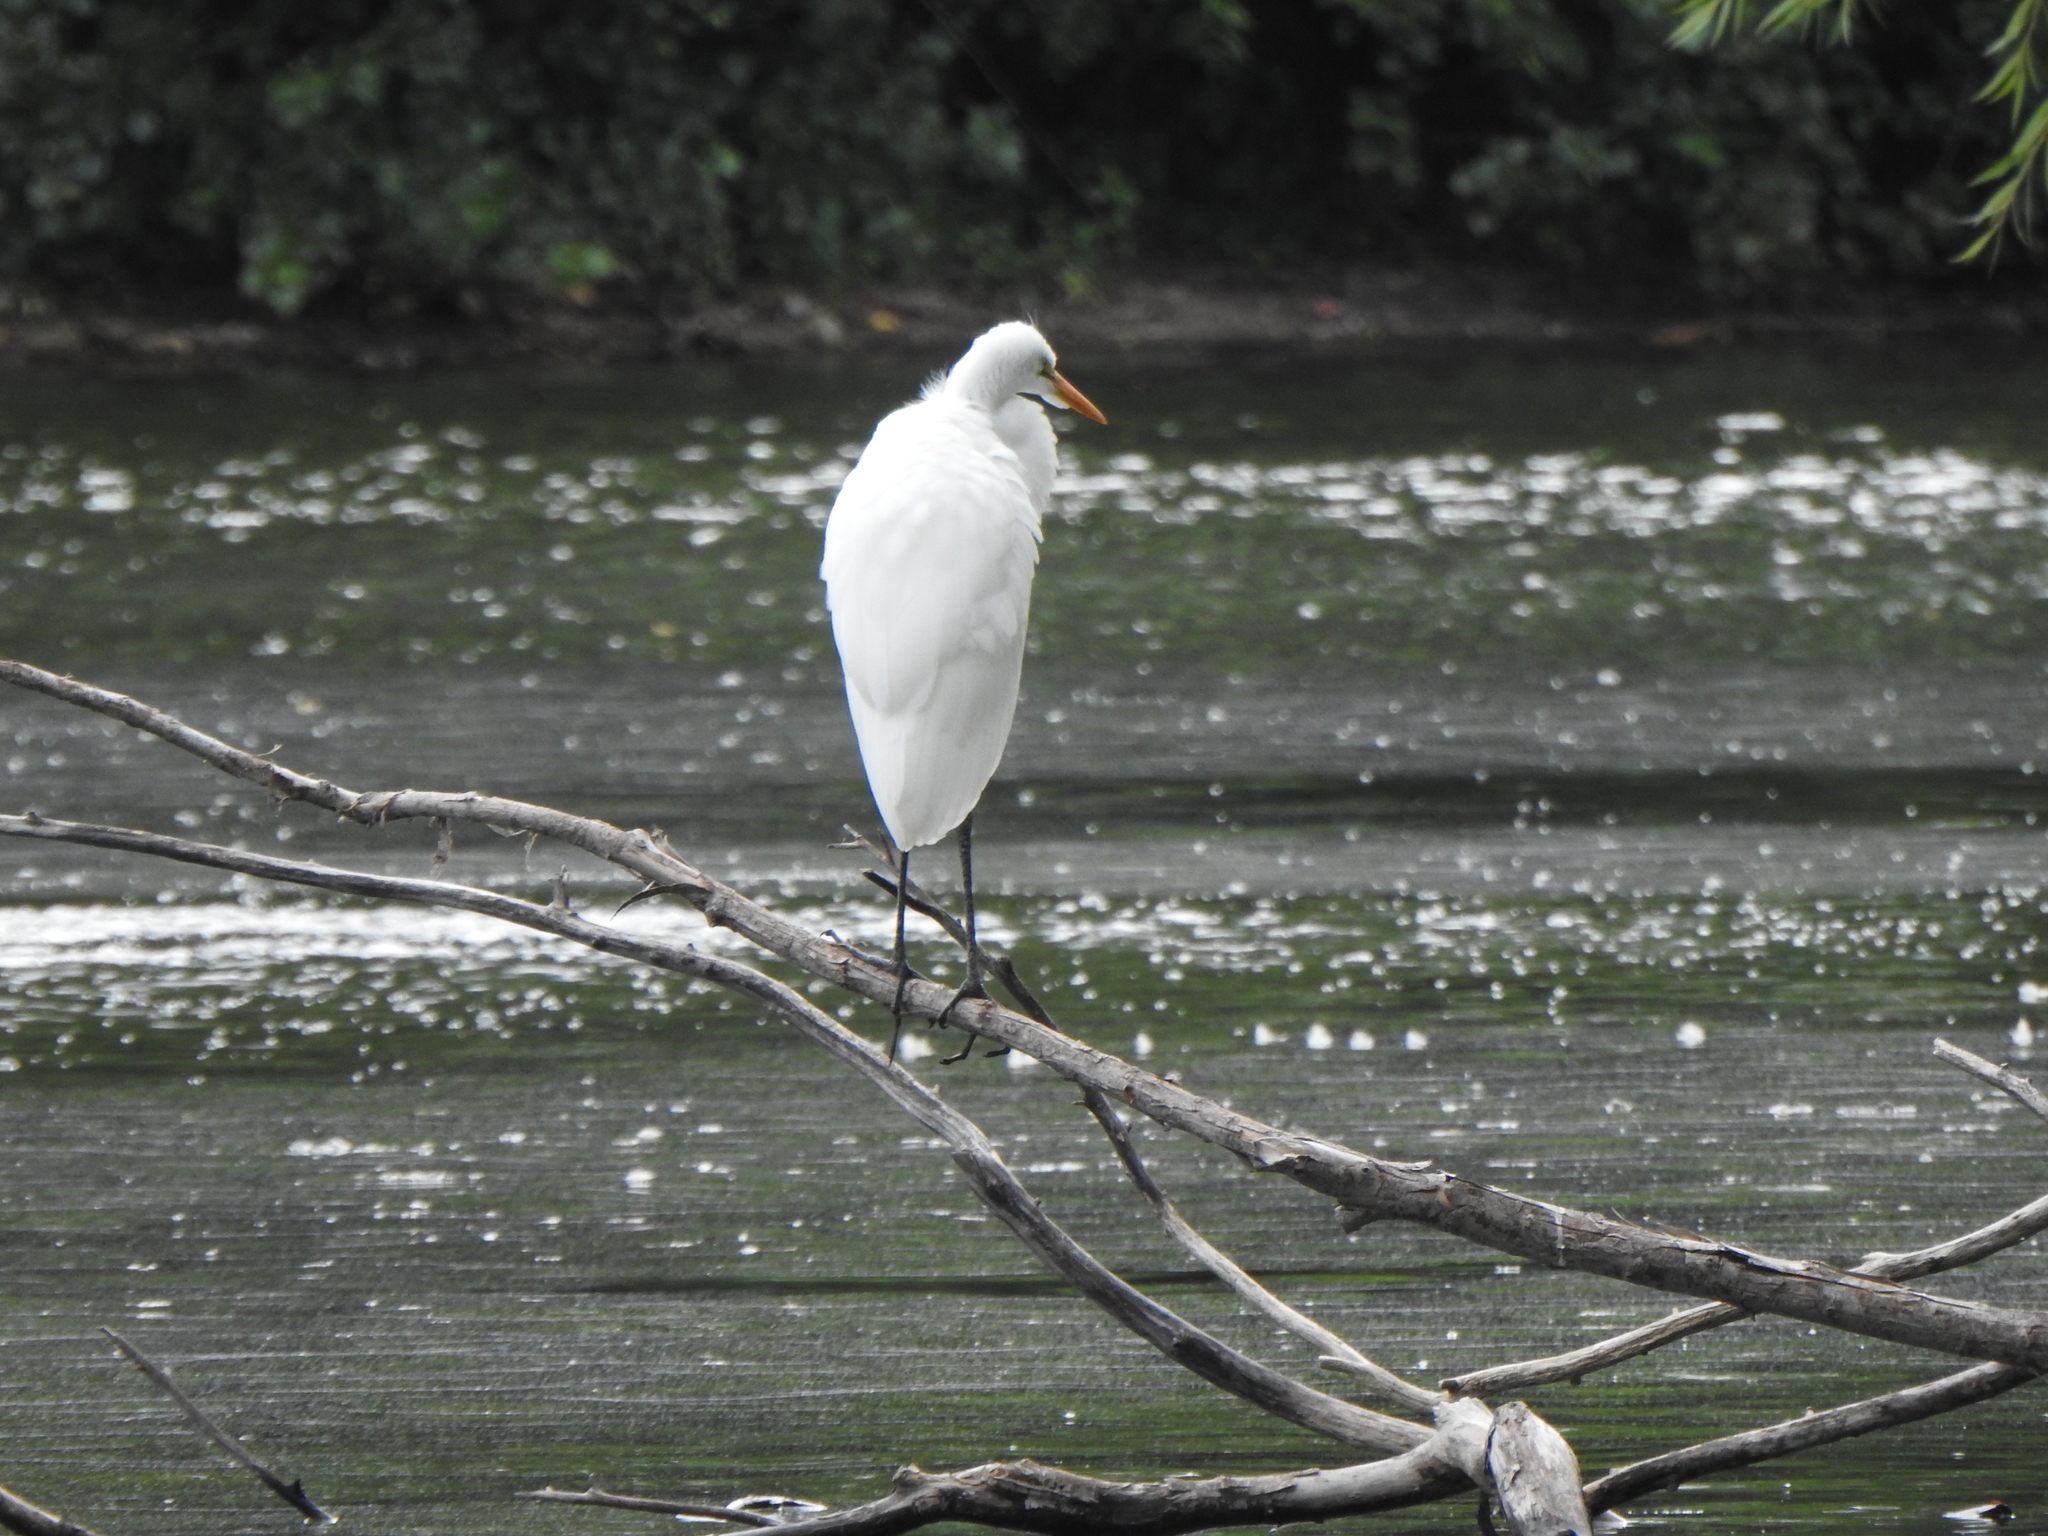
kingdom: Animalia
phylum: Chordata
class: Aves
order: Pelecaniformes
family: Ardeidae
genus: Ardea
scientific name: Ardea alba
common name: Great egret
